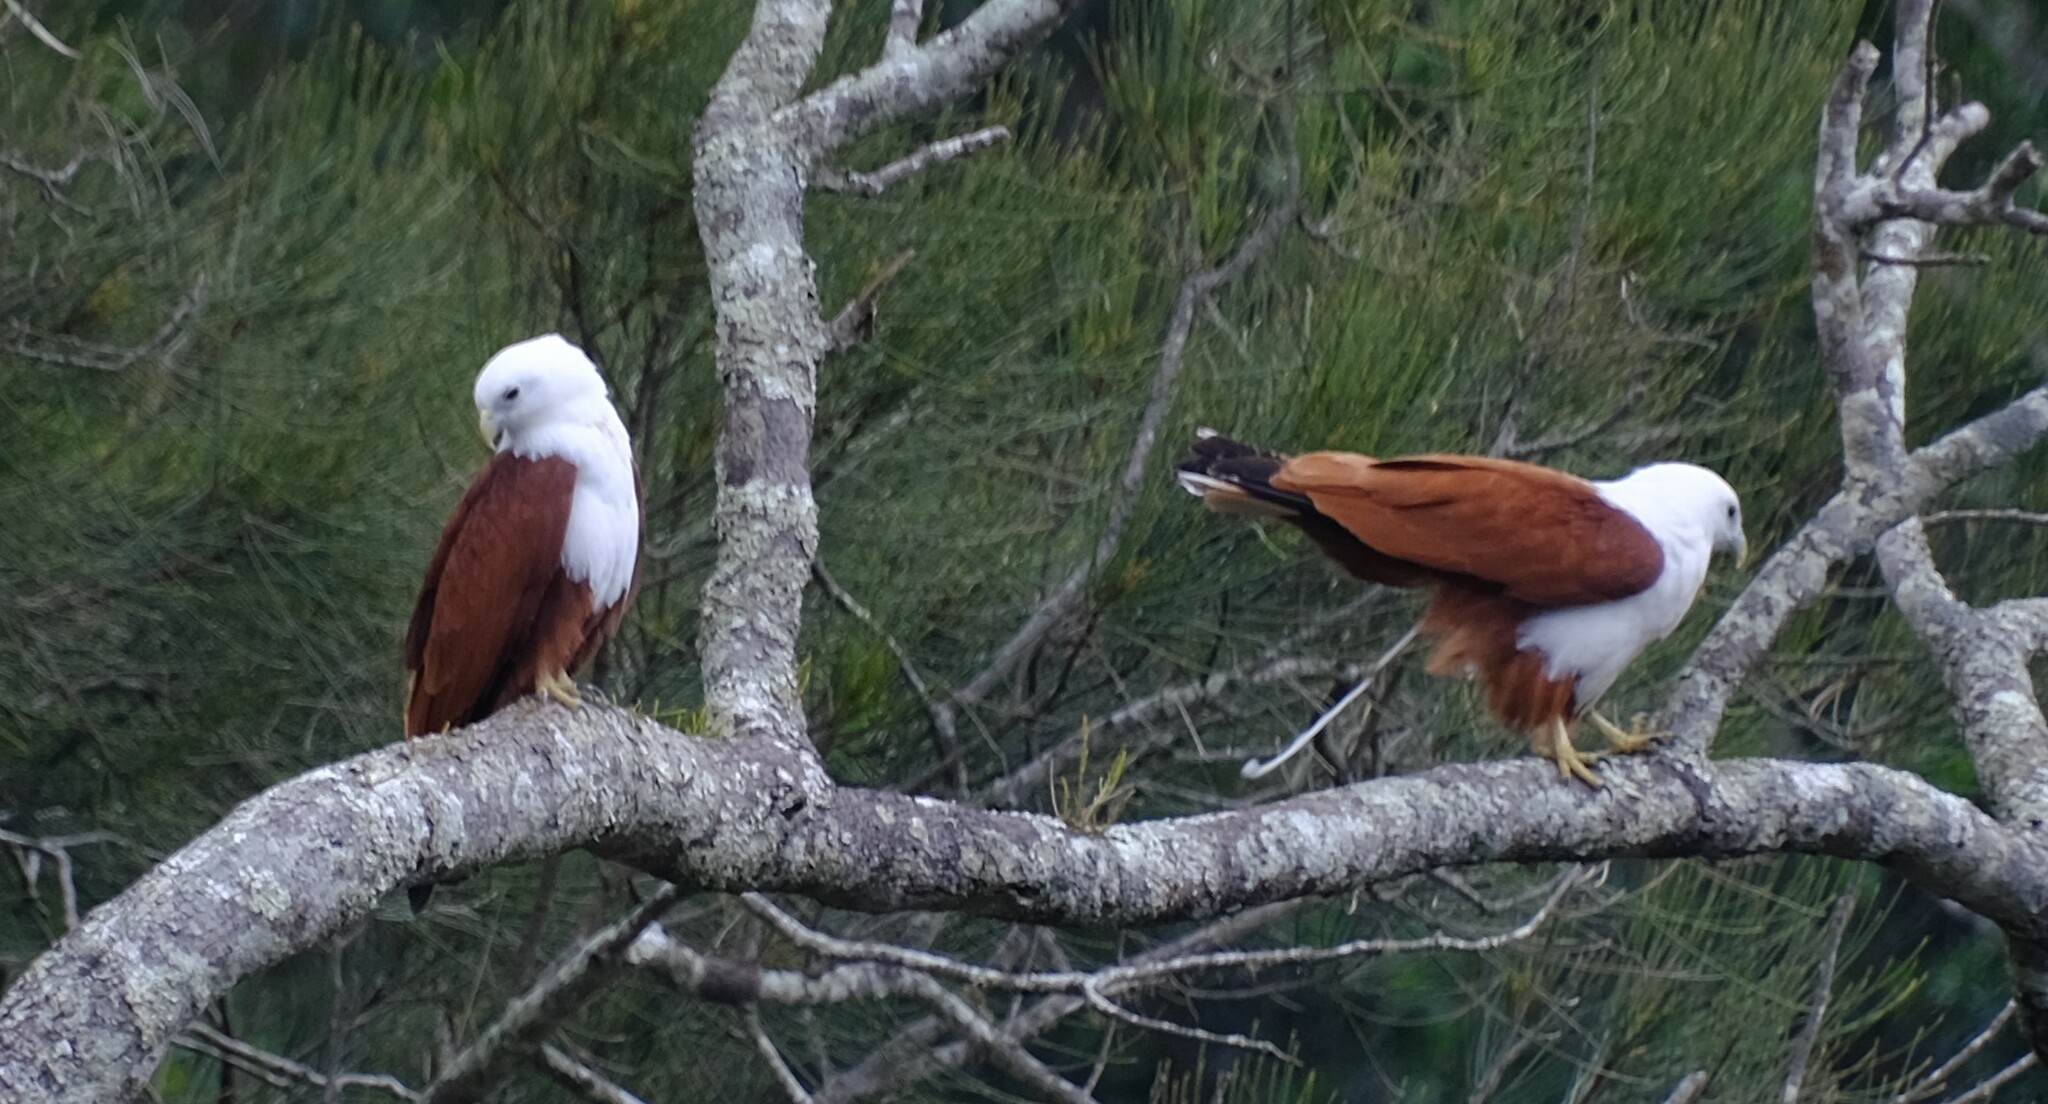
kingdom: Animalia
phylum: Chordata
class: Aves
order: Accipitriformes
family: Accipitridae
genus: Haliastur
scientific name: Haliastur indus
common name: Brahminy kite
